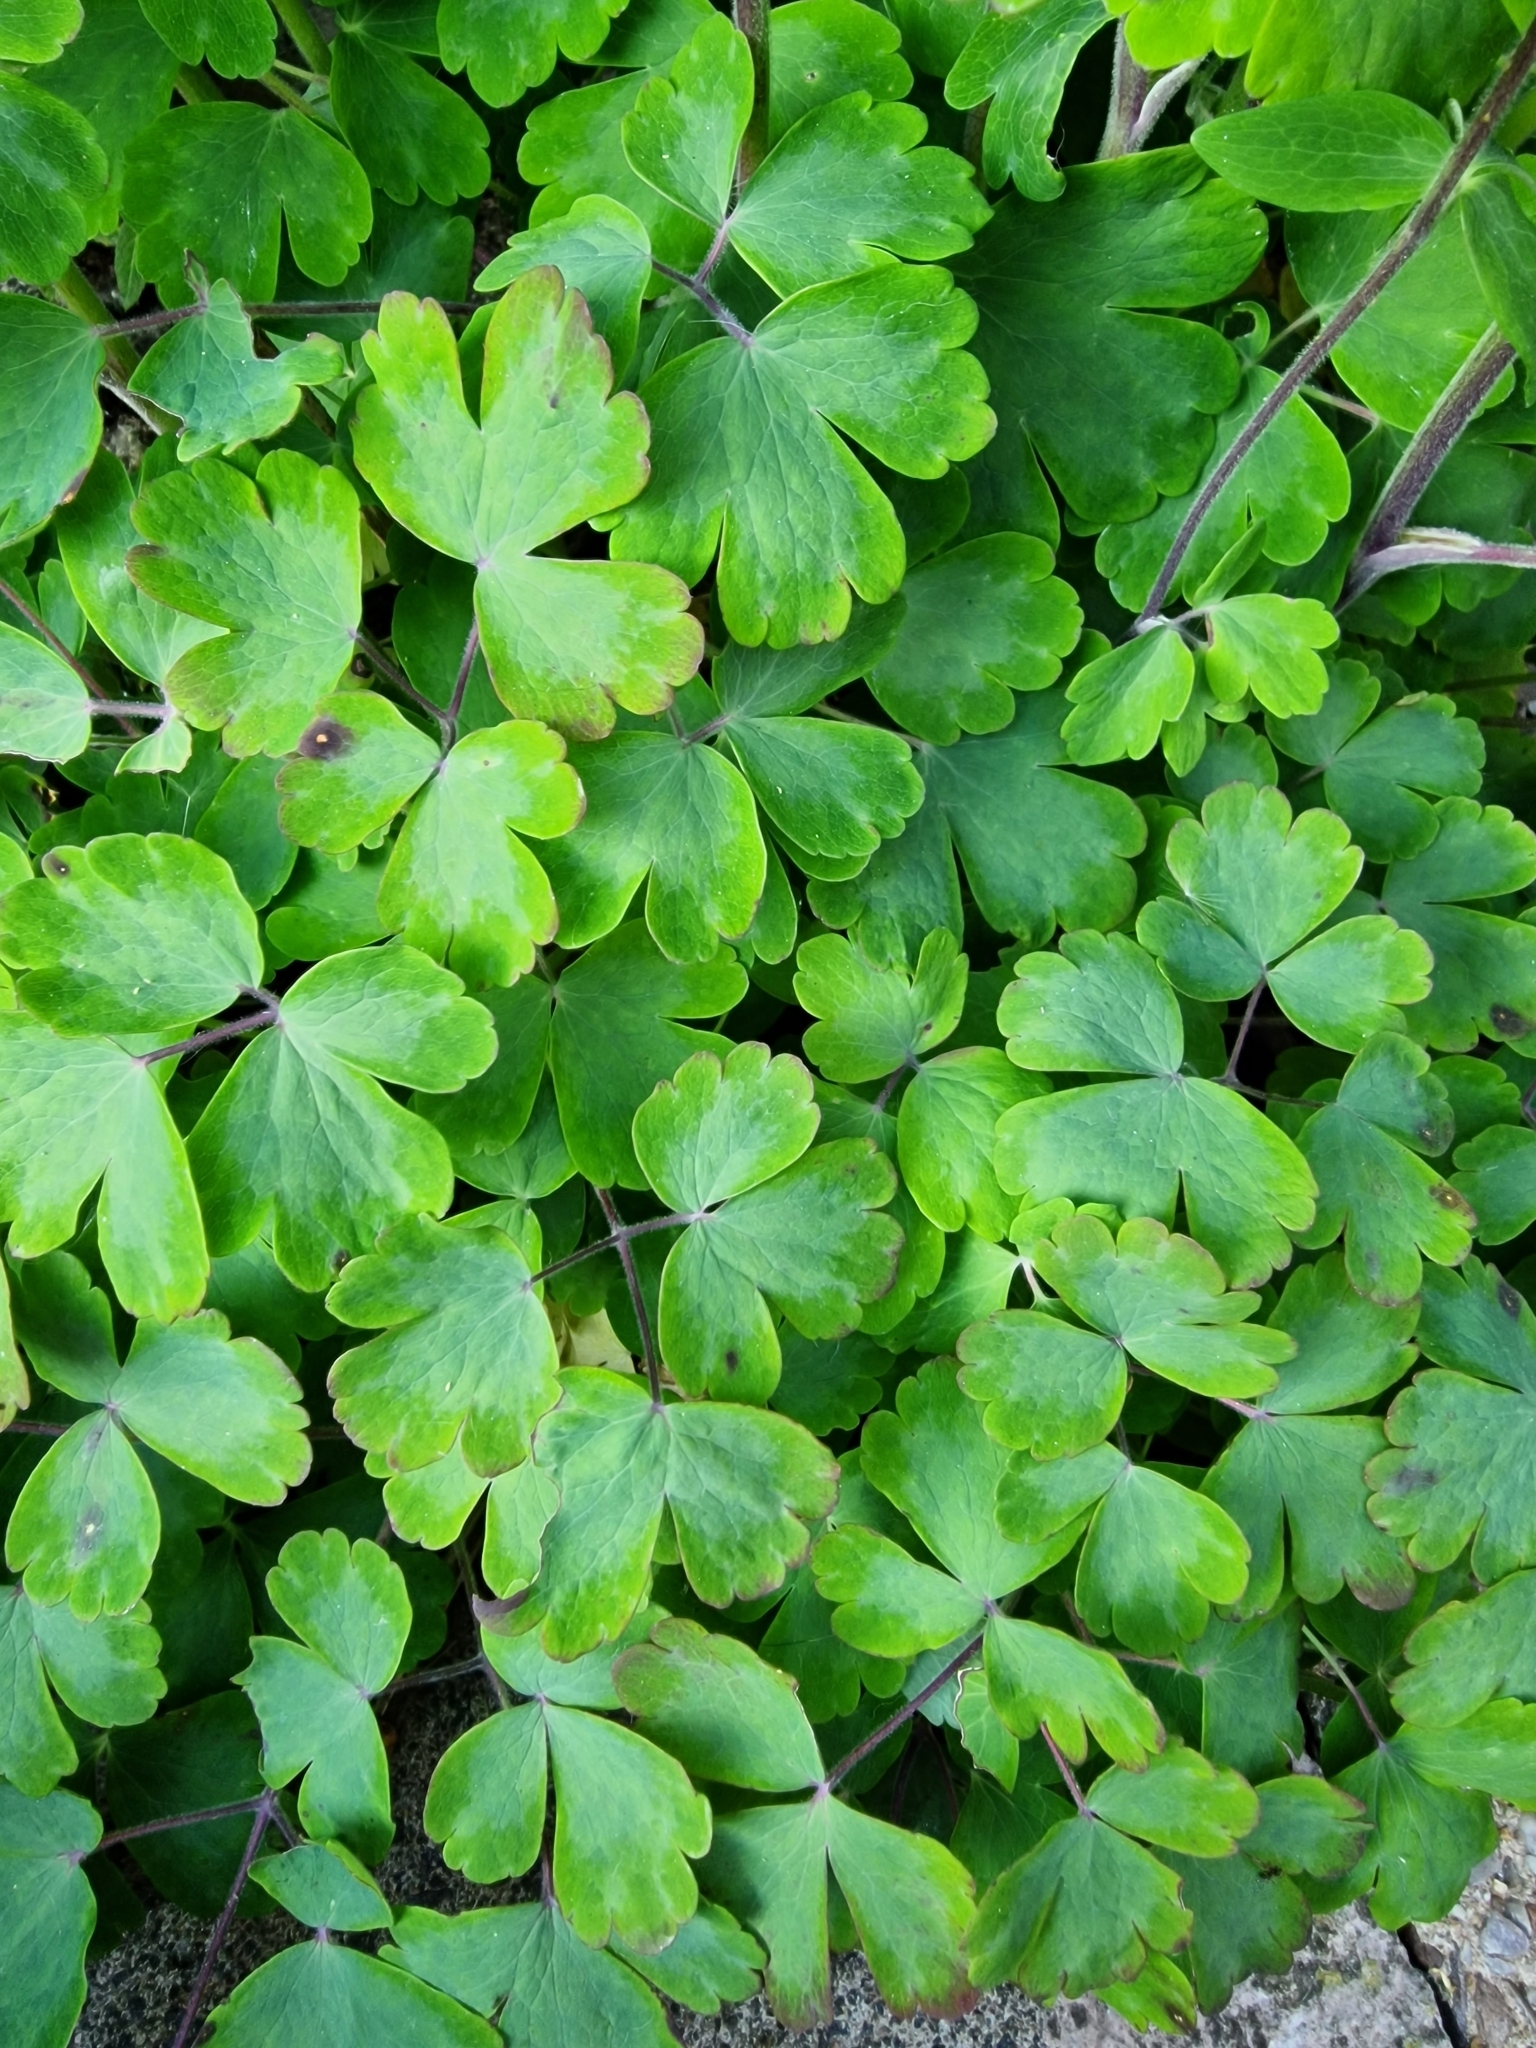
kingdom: Plantae
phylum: Tracheophyta
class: Magnoliopsida
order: Ranunculales
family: Ranunculaceae
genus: Aquilegia
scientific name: Aquilegia vulgaris
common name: Columbine
